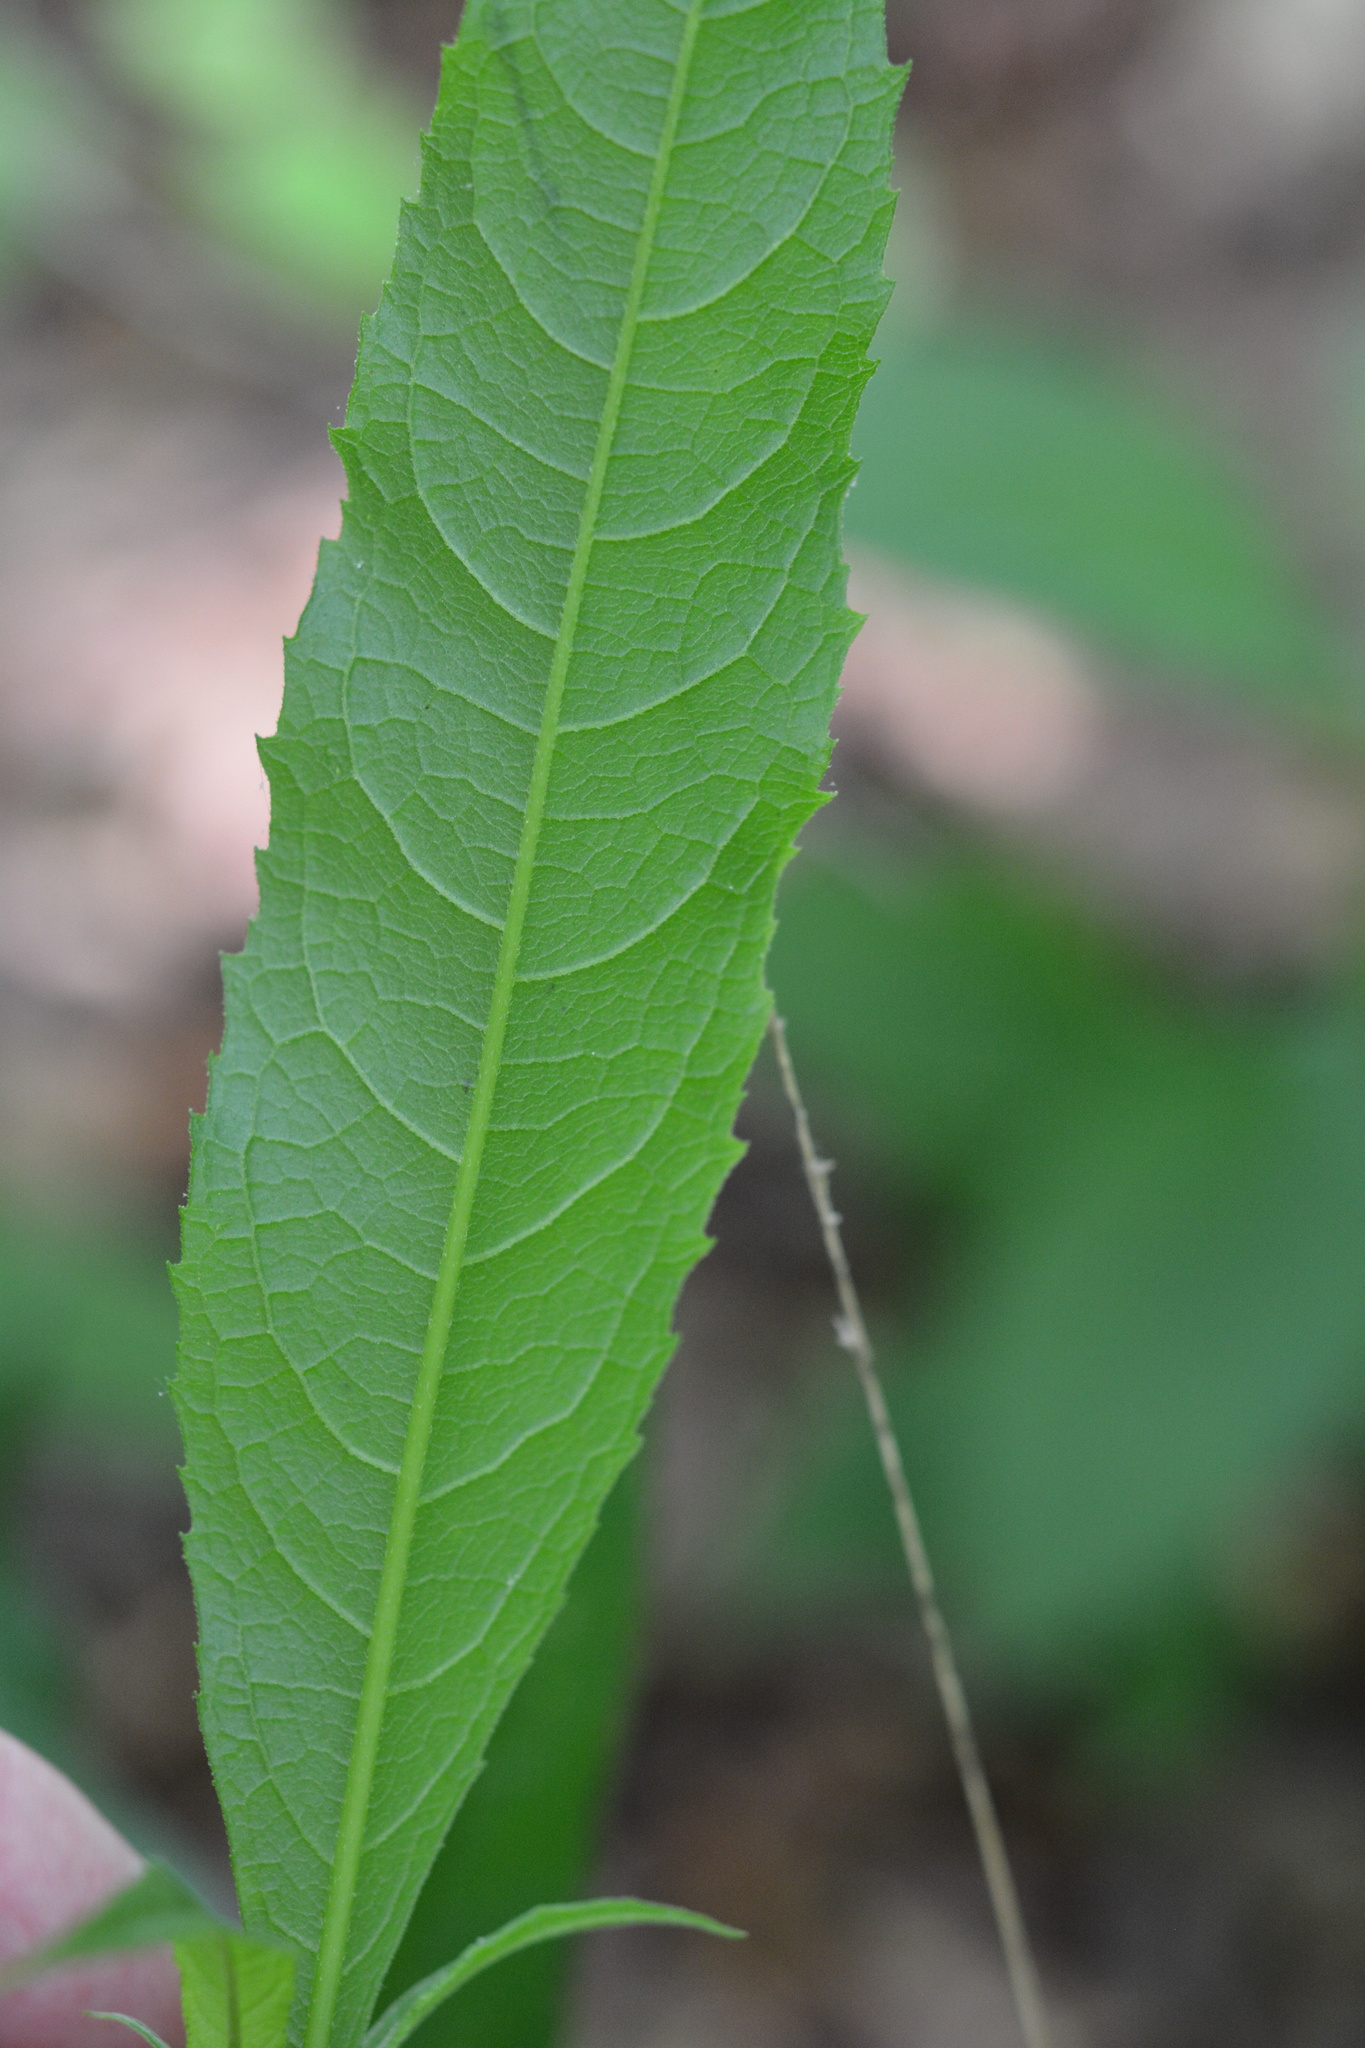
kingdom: Plantae
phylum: Tracheophyta
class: Magnoliopsida
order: Asterales
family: Asteraceae
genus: Verbesina
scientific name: Verbesina alternifolia
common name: Wingstem
